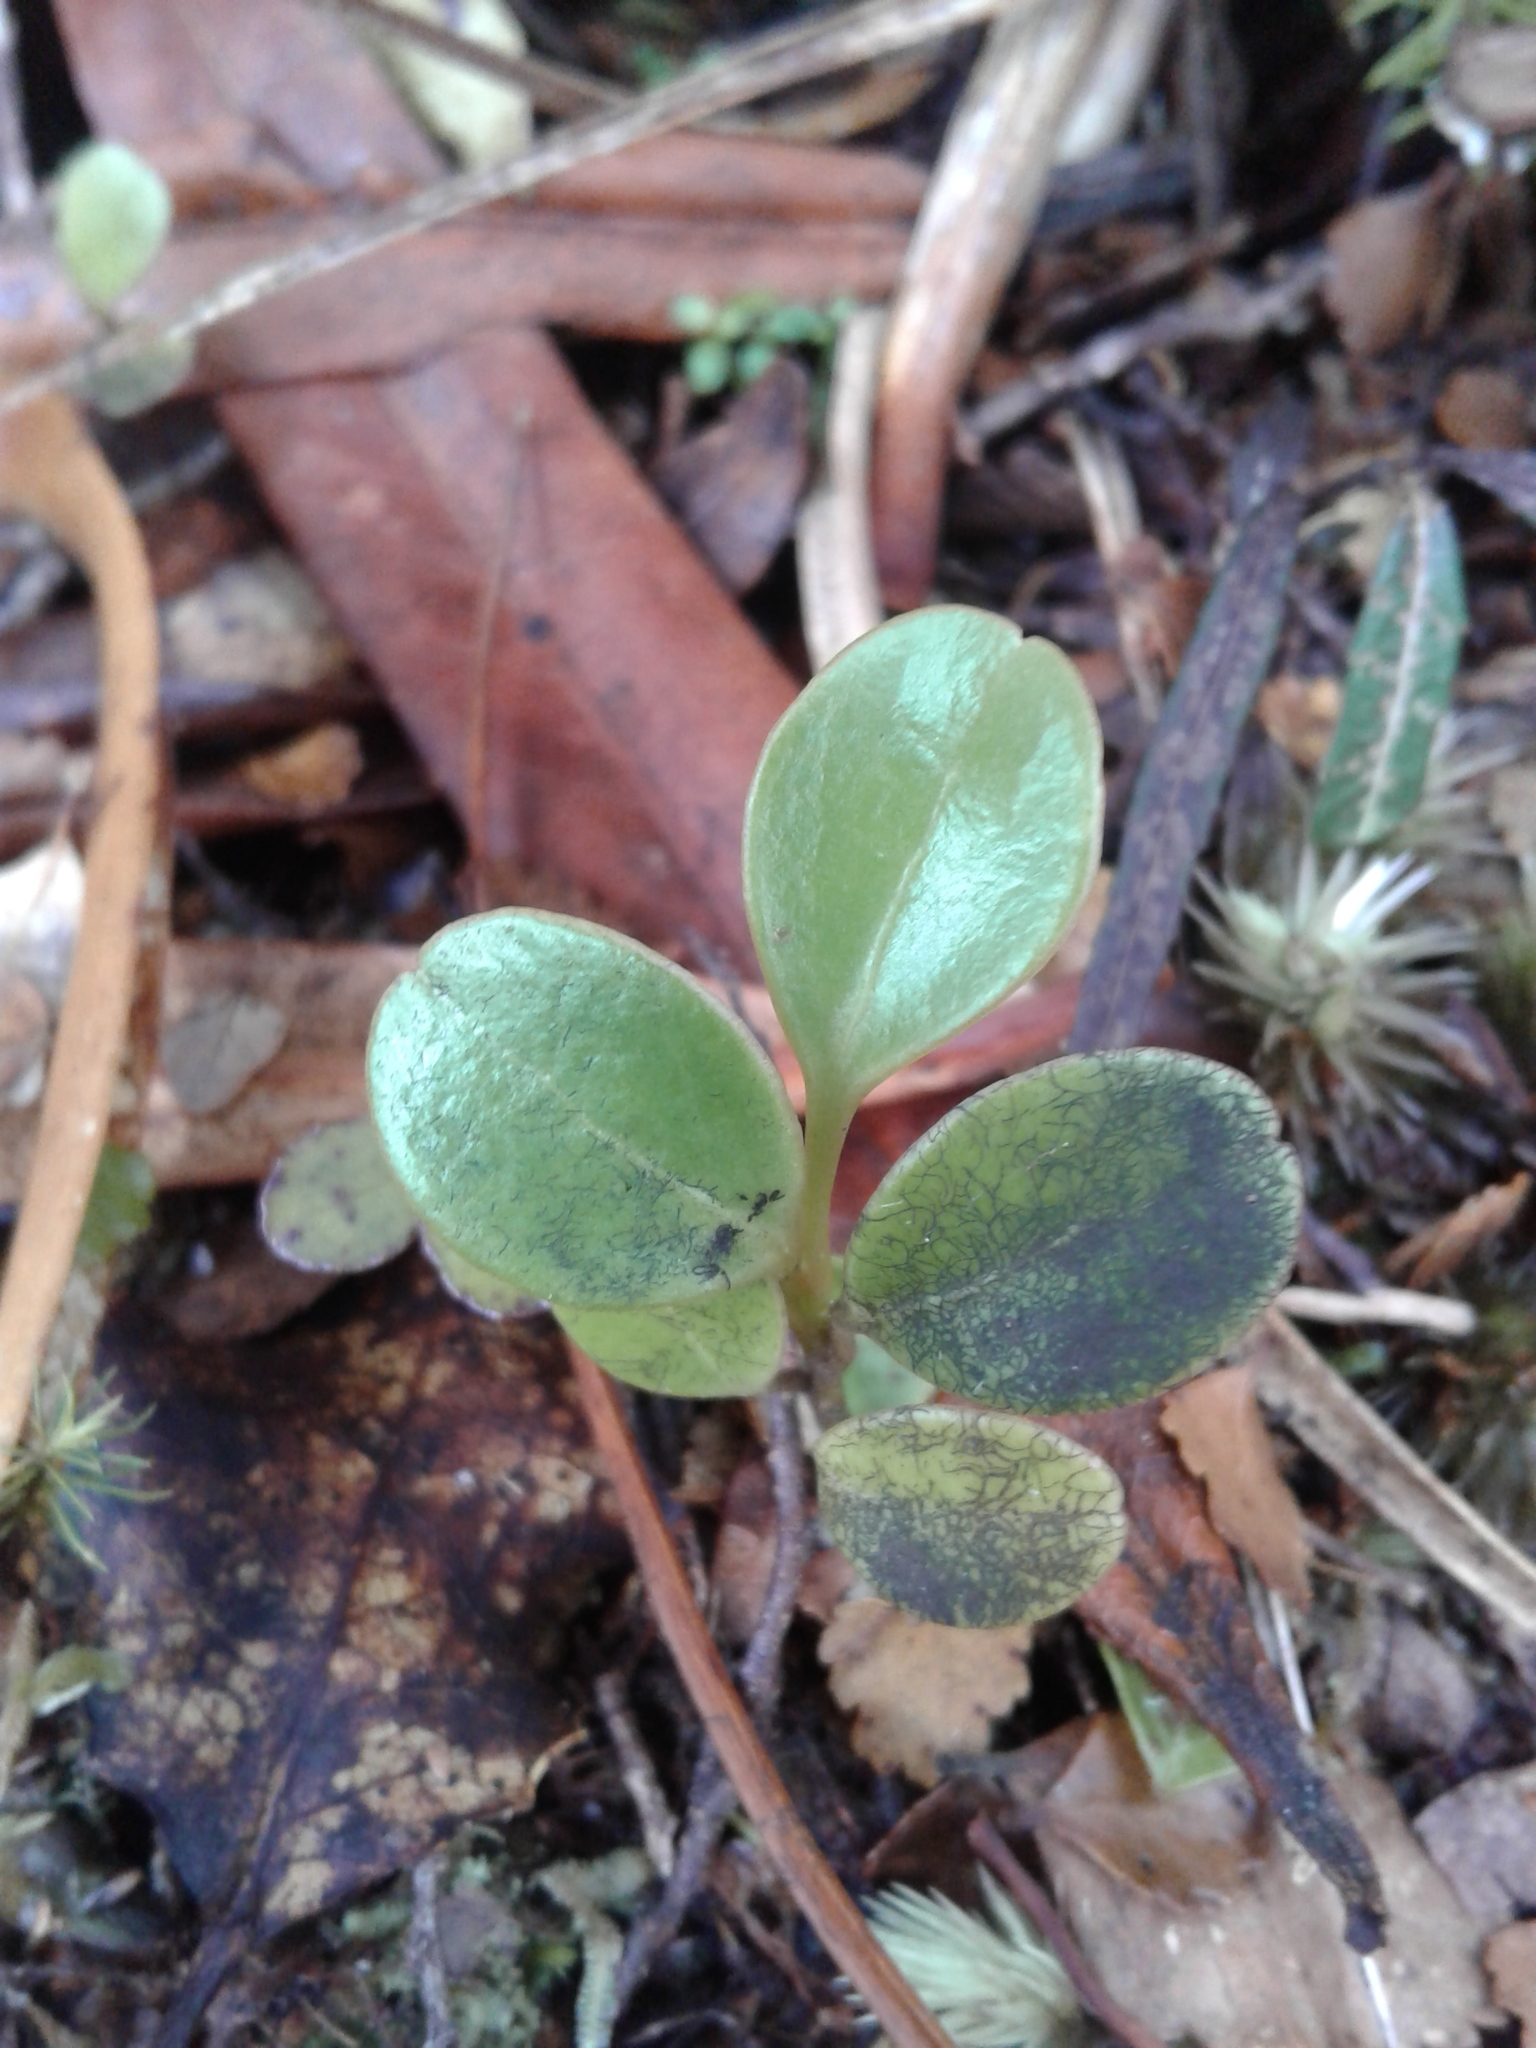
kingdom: Plantae
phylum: Tracheophyta
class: Magnoliopsida
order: Apiales
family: Griseliniaceae
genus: Griselinia
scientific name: Griselinia littoralis
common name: New zealand broadleaf
